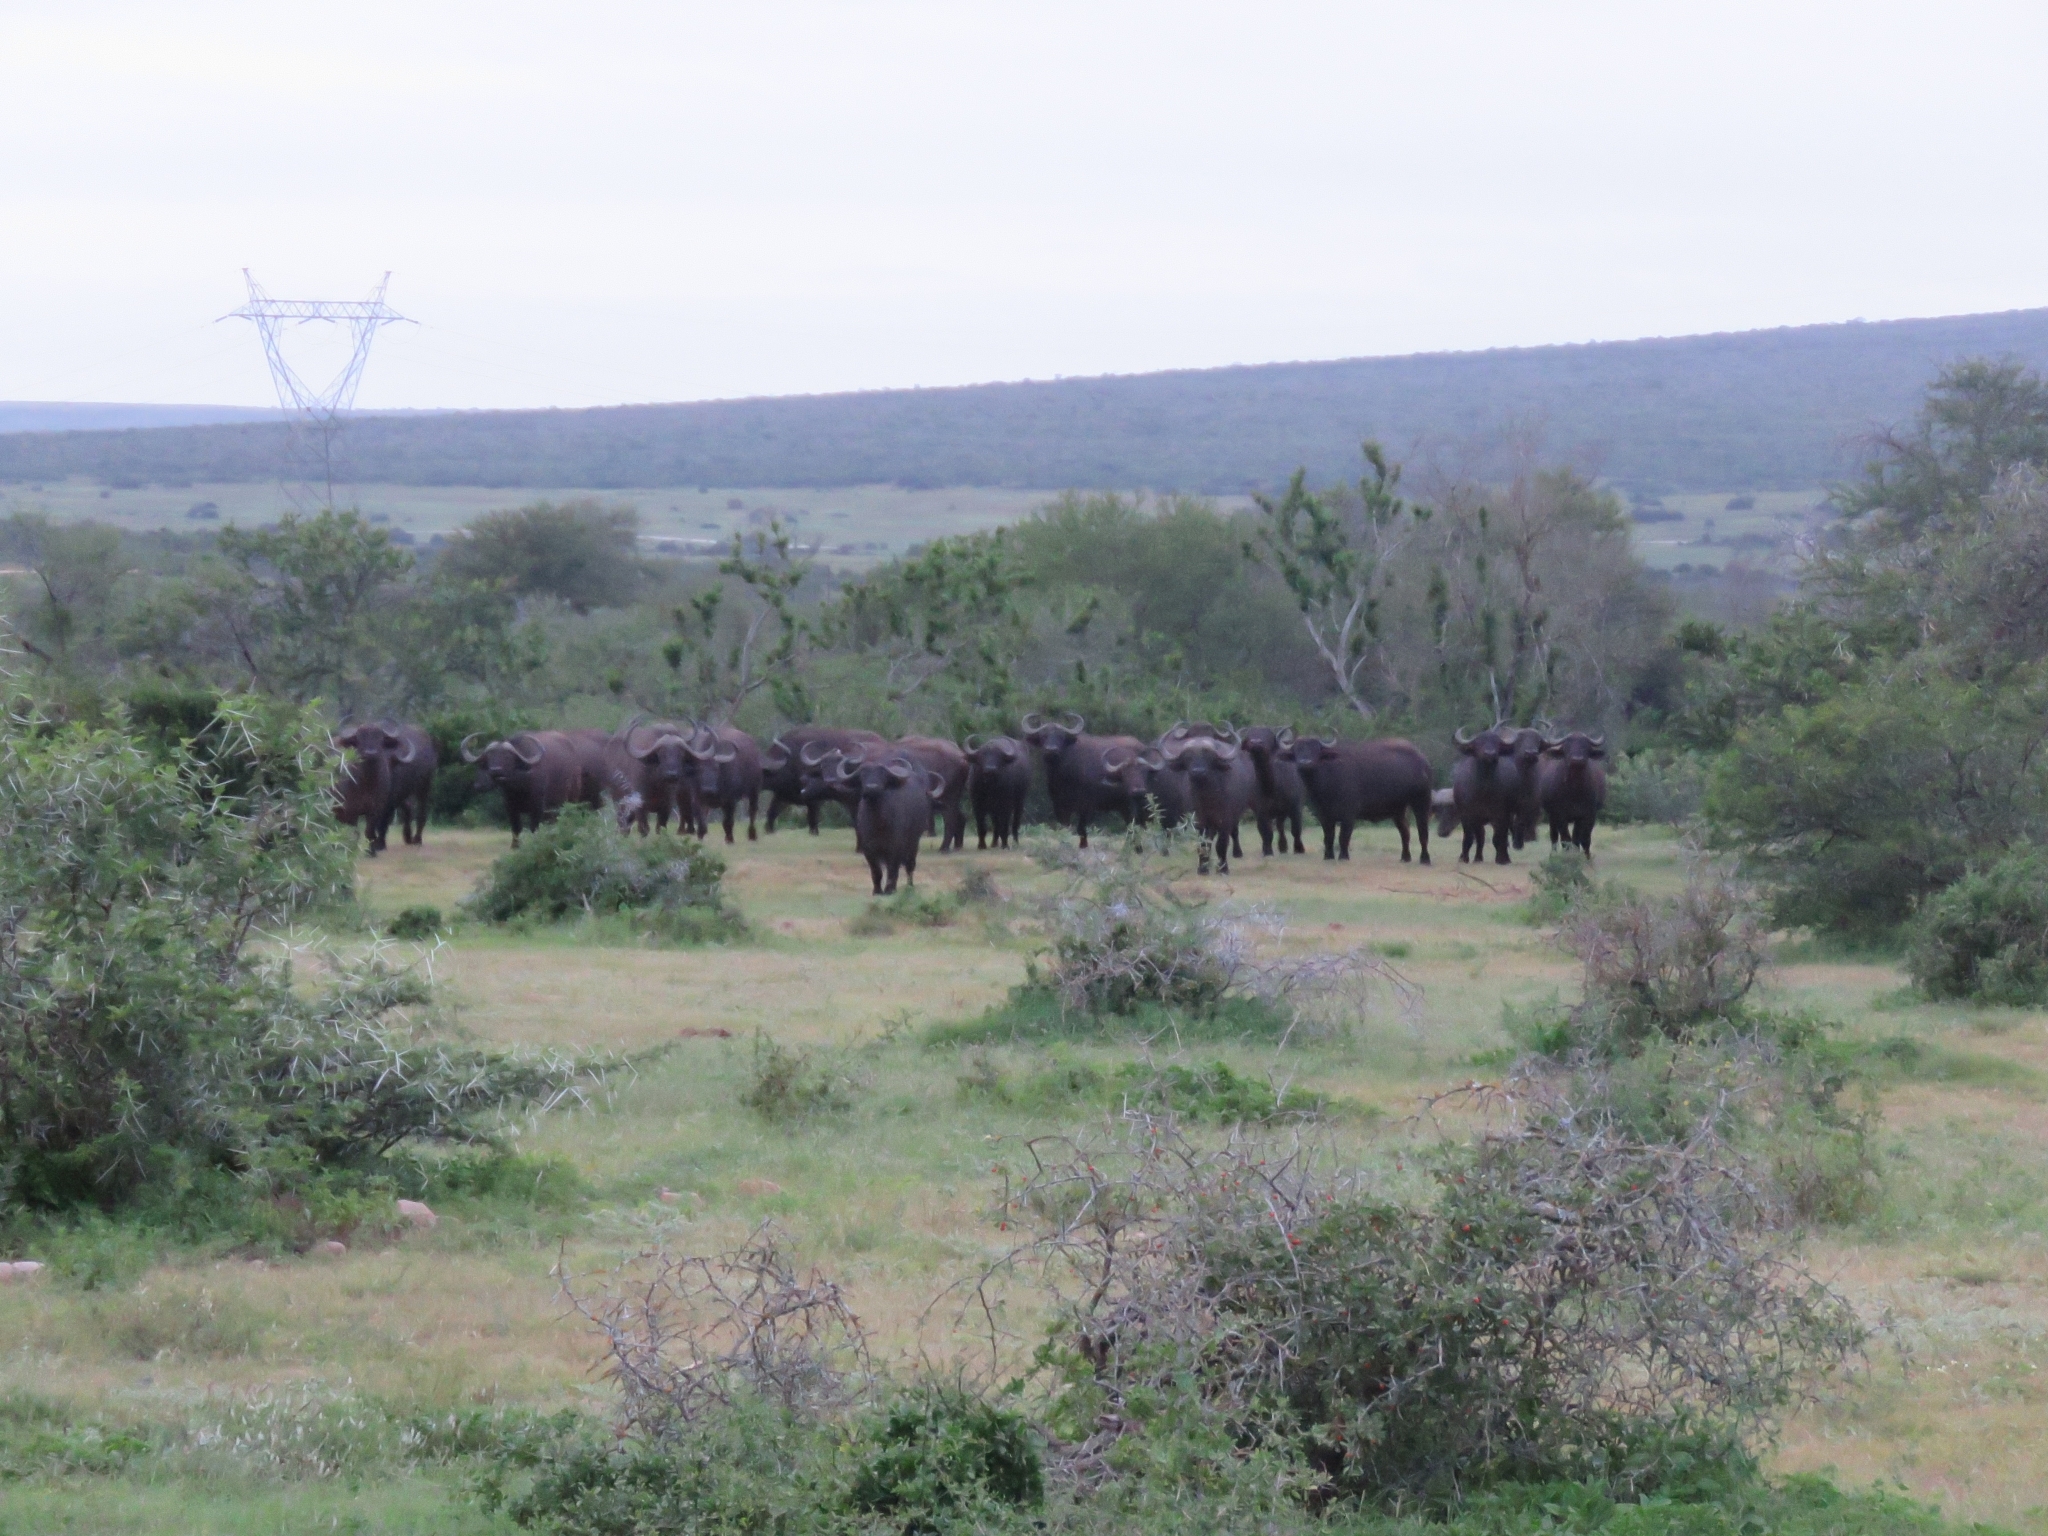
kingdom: Animalia
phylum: Chordata
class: Mammalia
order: Artiodactyla
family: Bovidae
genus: Syncerus
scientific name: Syncerus caffer
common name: African buffalo
